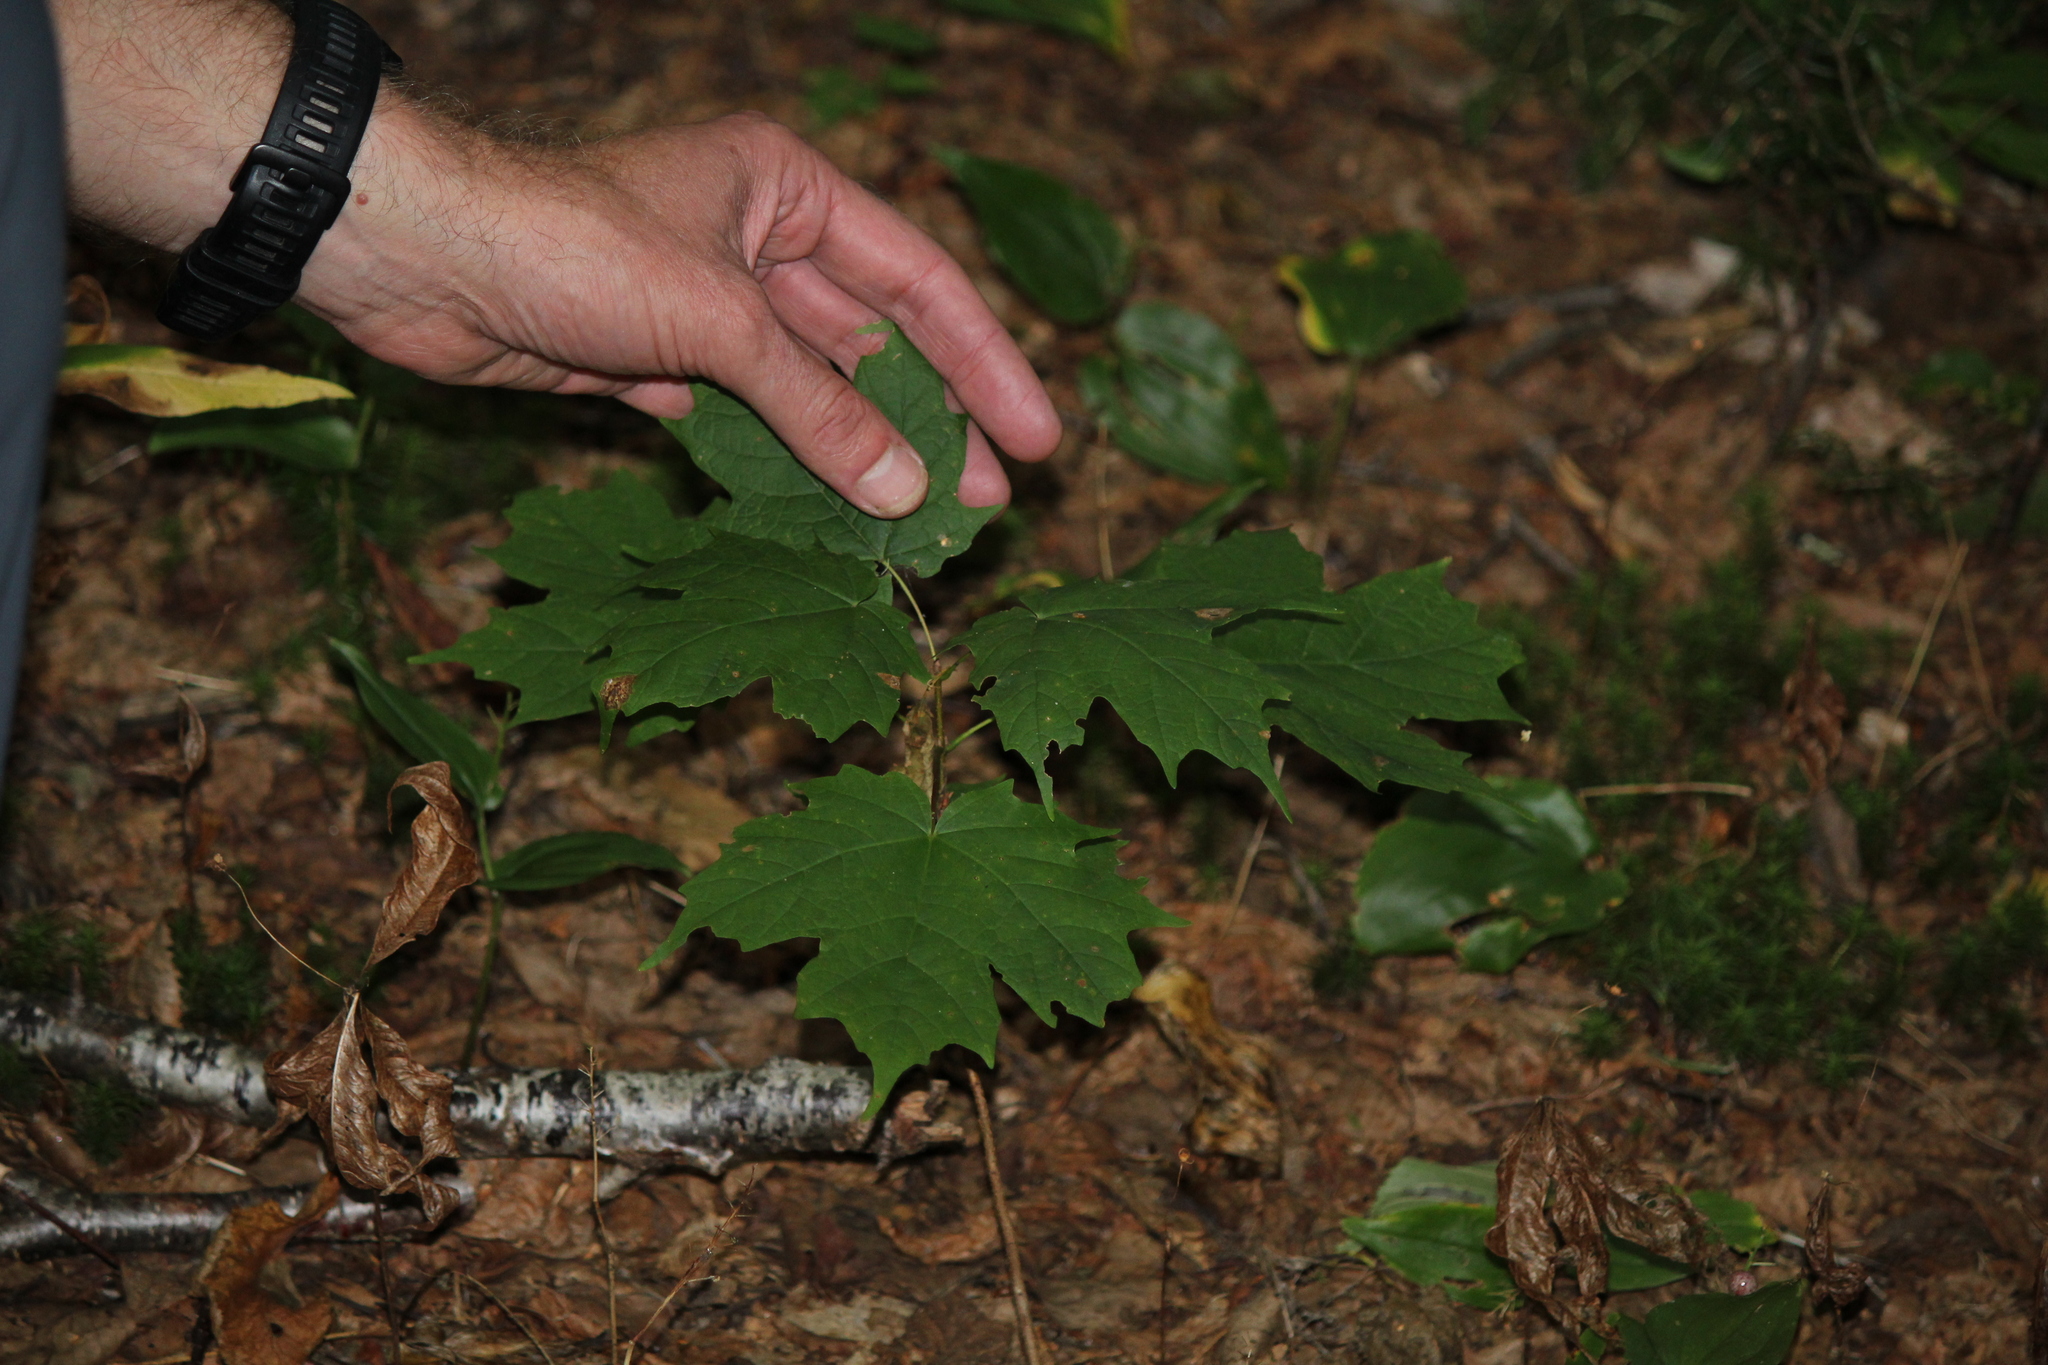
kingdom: Plantae
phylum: Tracheophyta
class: Magnoliopsida
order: Sapindales
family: Sapindaceae
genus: Acer
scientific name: Acer saccharum
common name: Sugar maple
